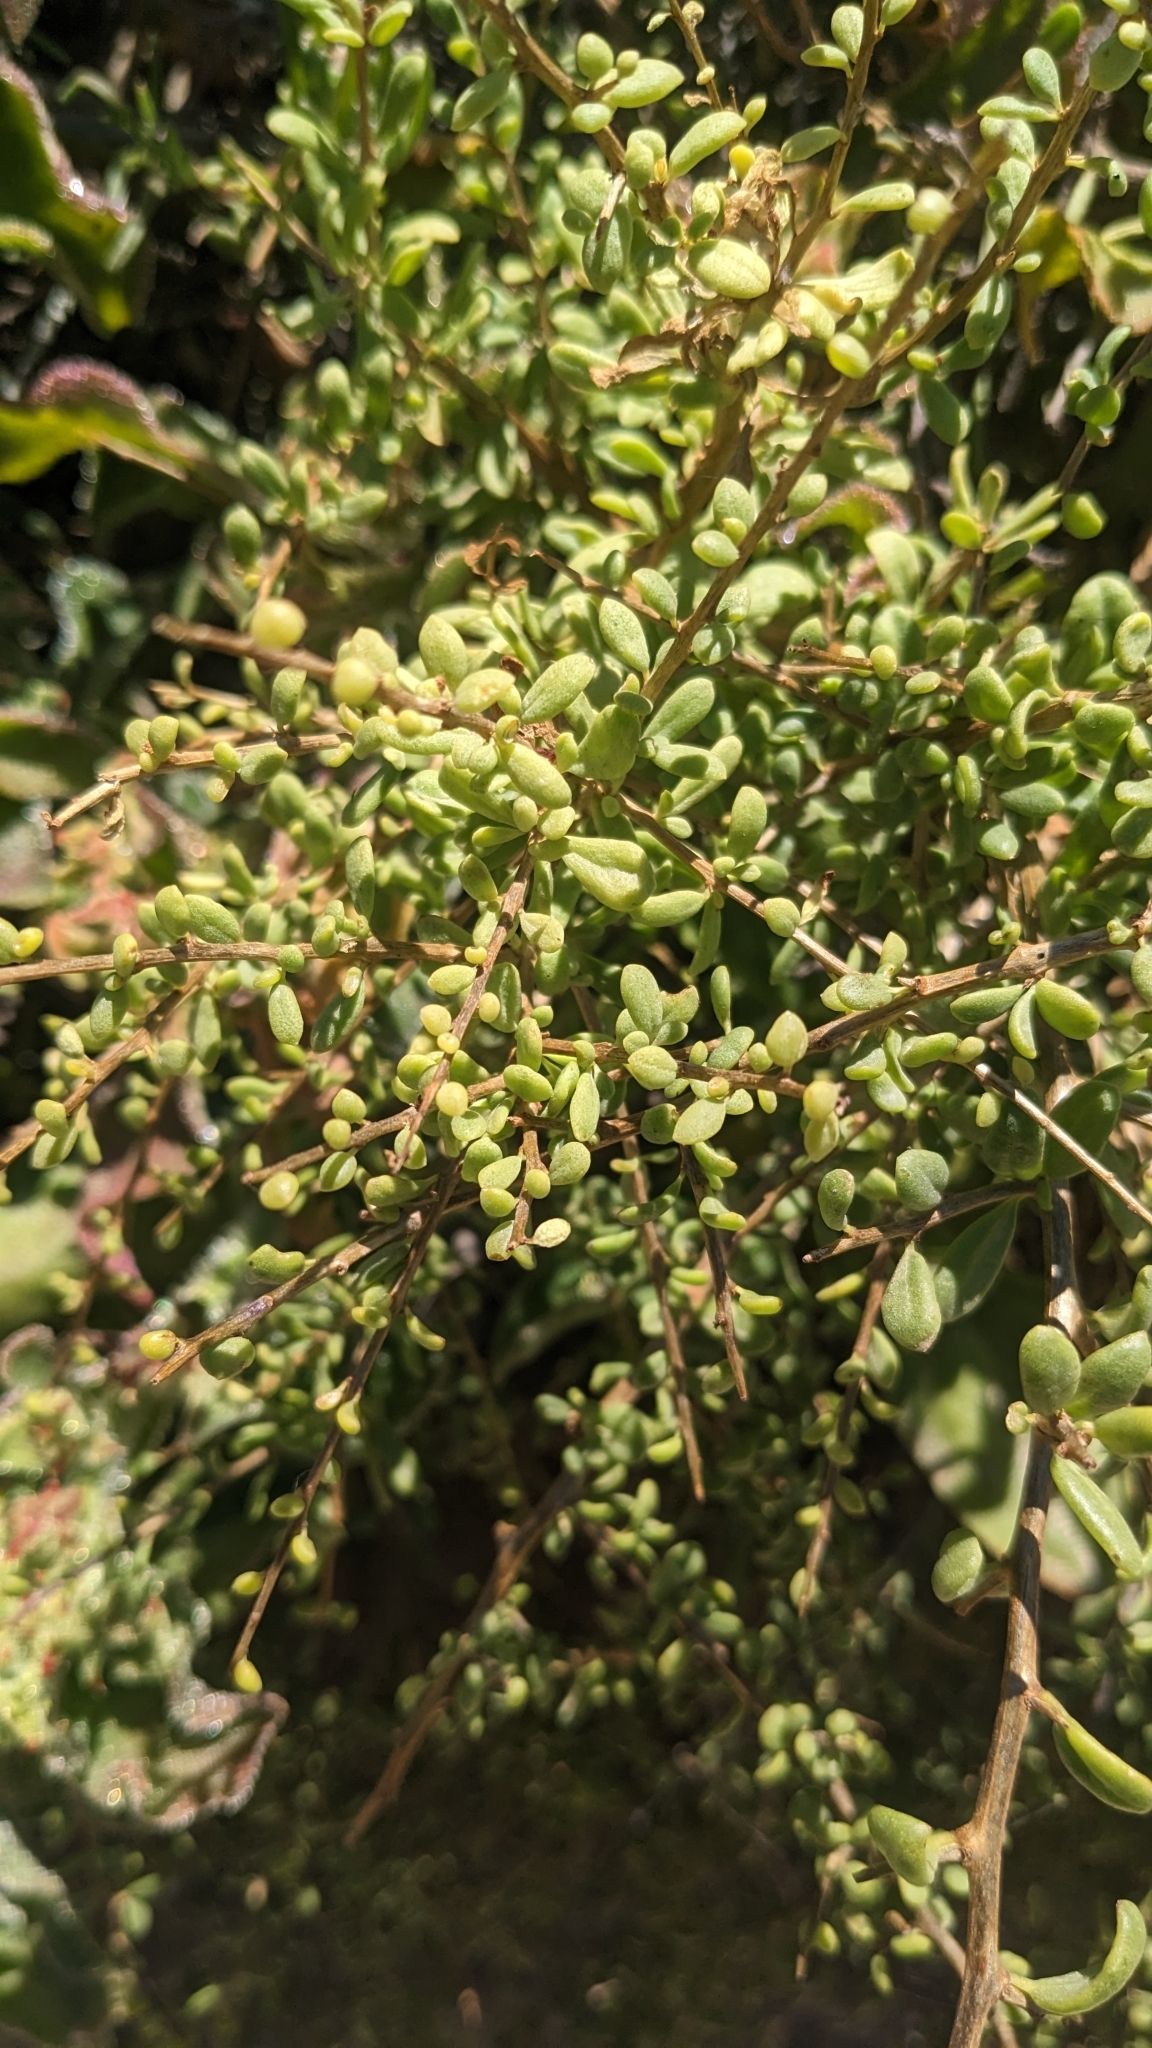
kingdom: Plantae
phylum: Tracheophyta
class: Magnoliopsida
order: Solanales
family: Solanaceae
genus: Lycium
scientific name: Lycium californicum
